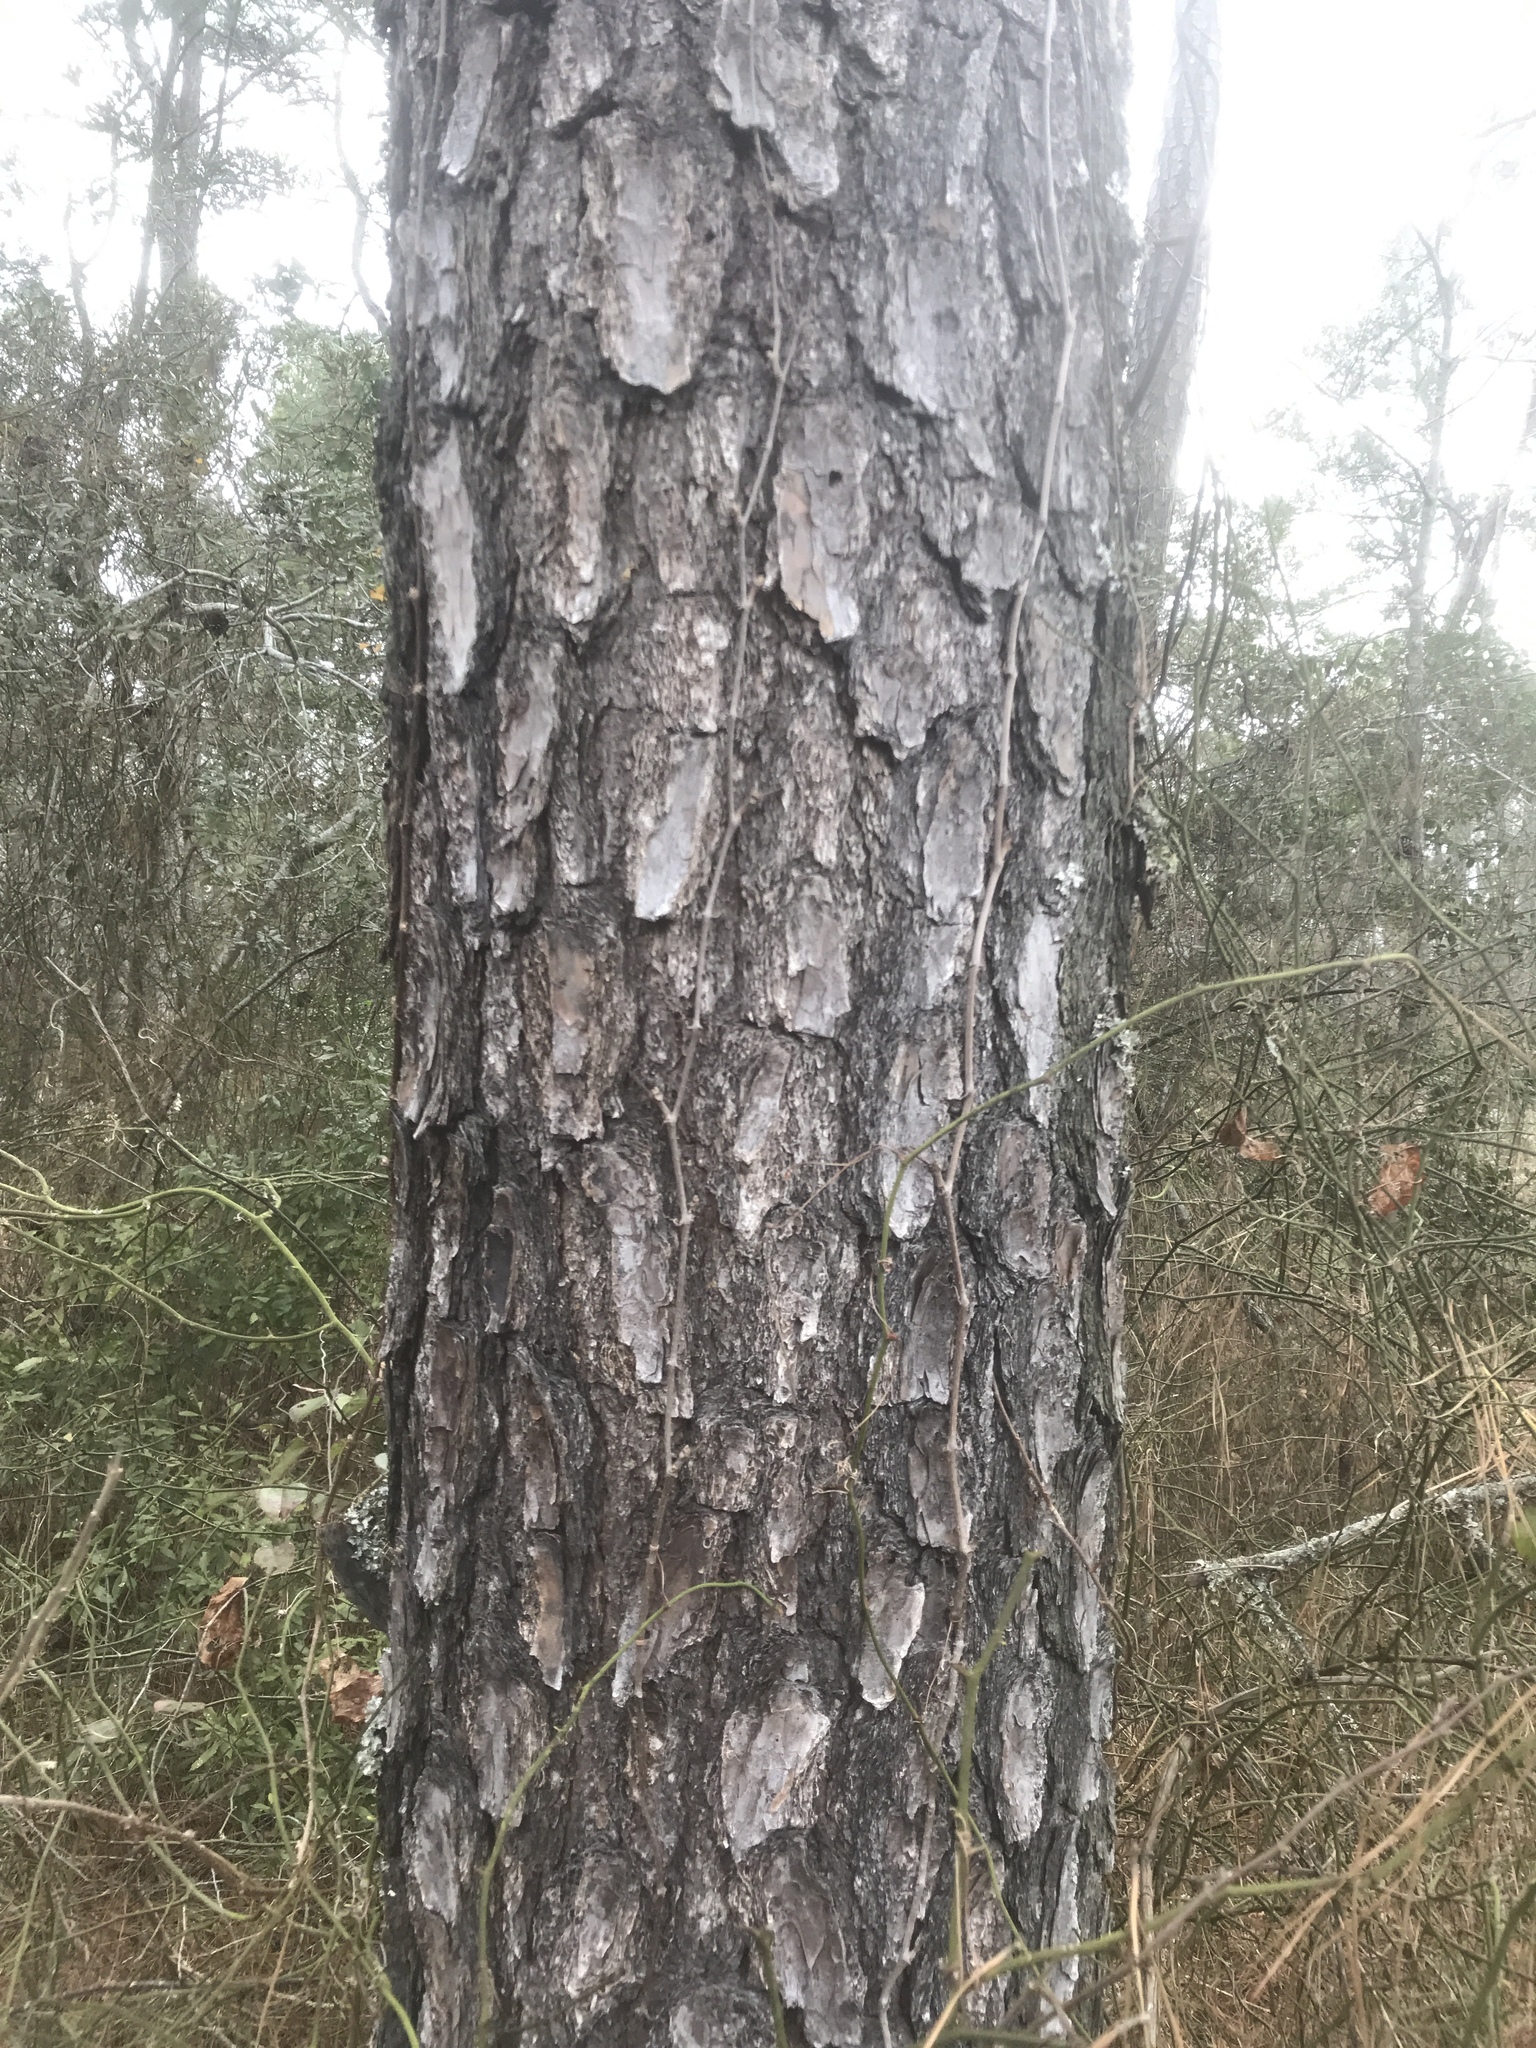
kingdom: Plantae
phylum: Tracheophyta
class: Pinopsida
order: Pinales
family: Pinaceae
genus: Pinus
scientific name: Pinus taeda
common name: Loblolly pine
